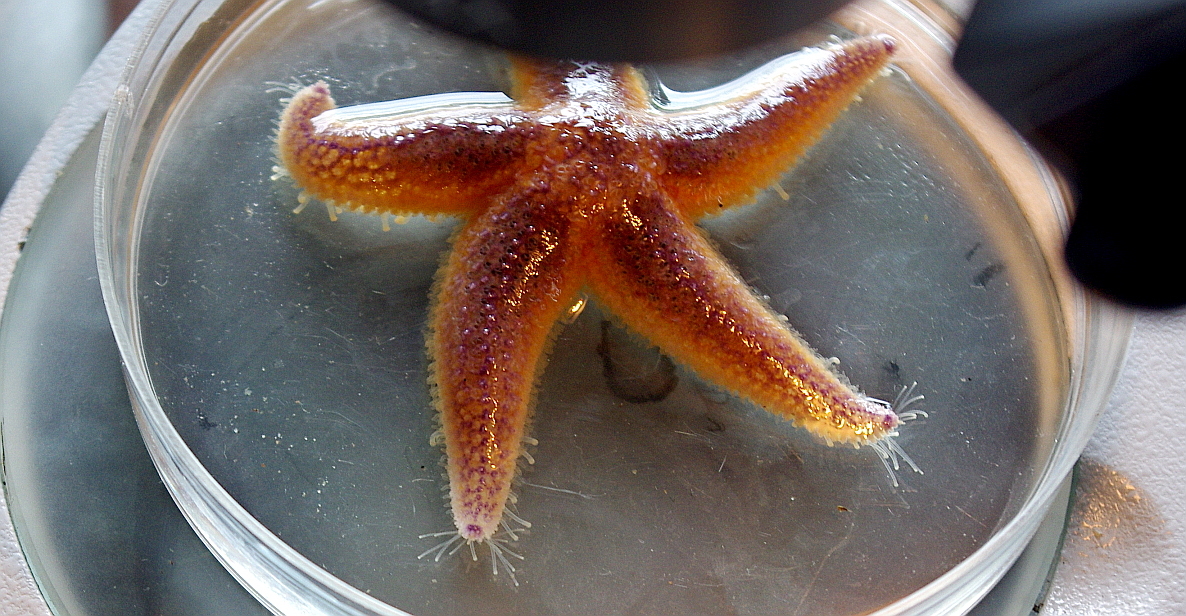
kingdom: Animalia
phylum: Echinodermata
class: Asteroidea
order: Forcipulatida
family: Asteriidae
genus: Asterias
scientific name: Asterias rubens
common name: Common starfish
